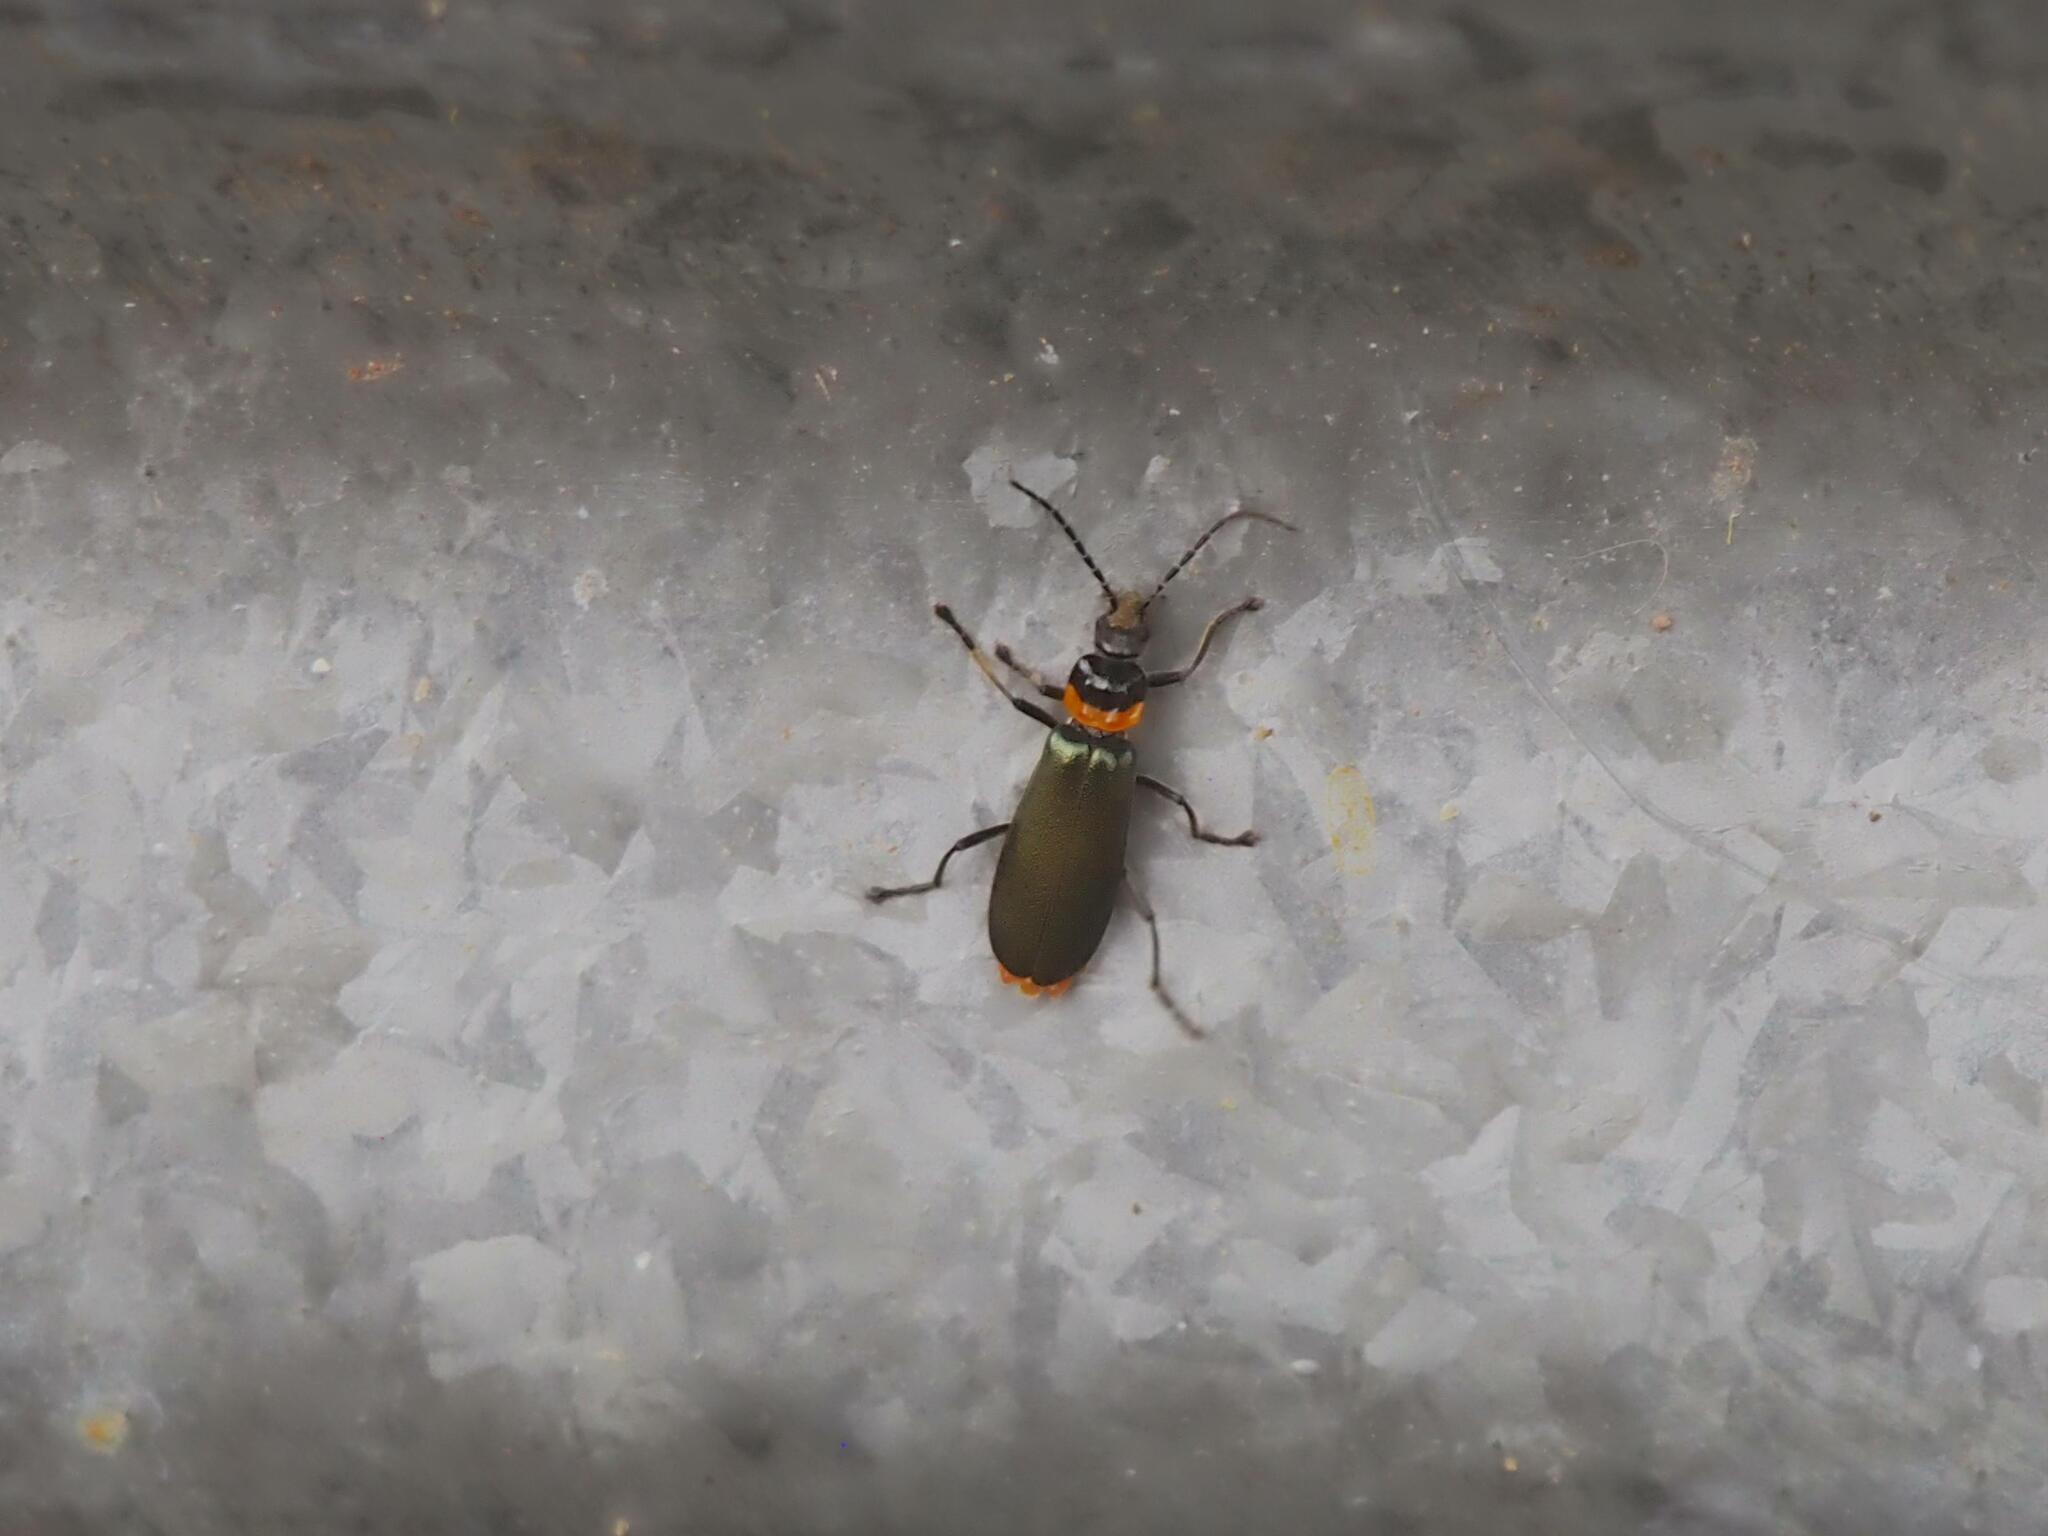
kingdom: Animalia
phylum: Arthropoda
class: Insecta
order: Coleoptera
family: Cantharidae
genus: Chauliognathus
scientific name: Chauliognathus
